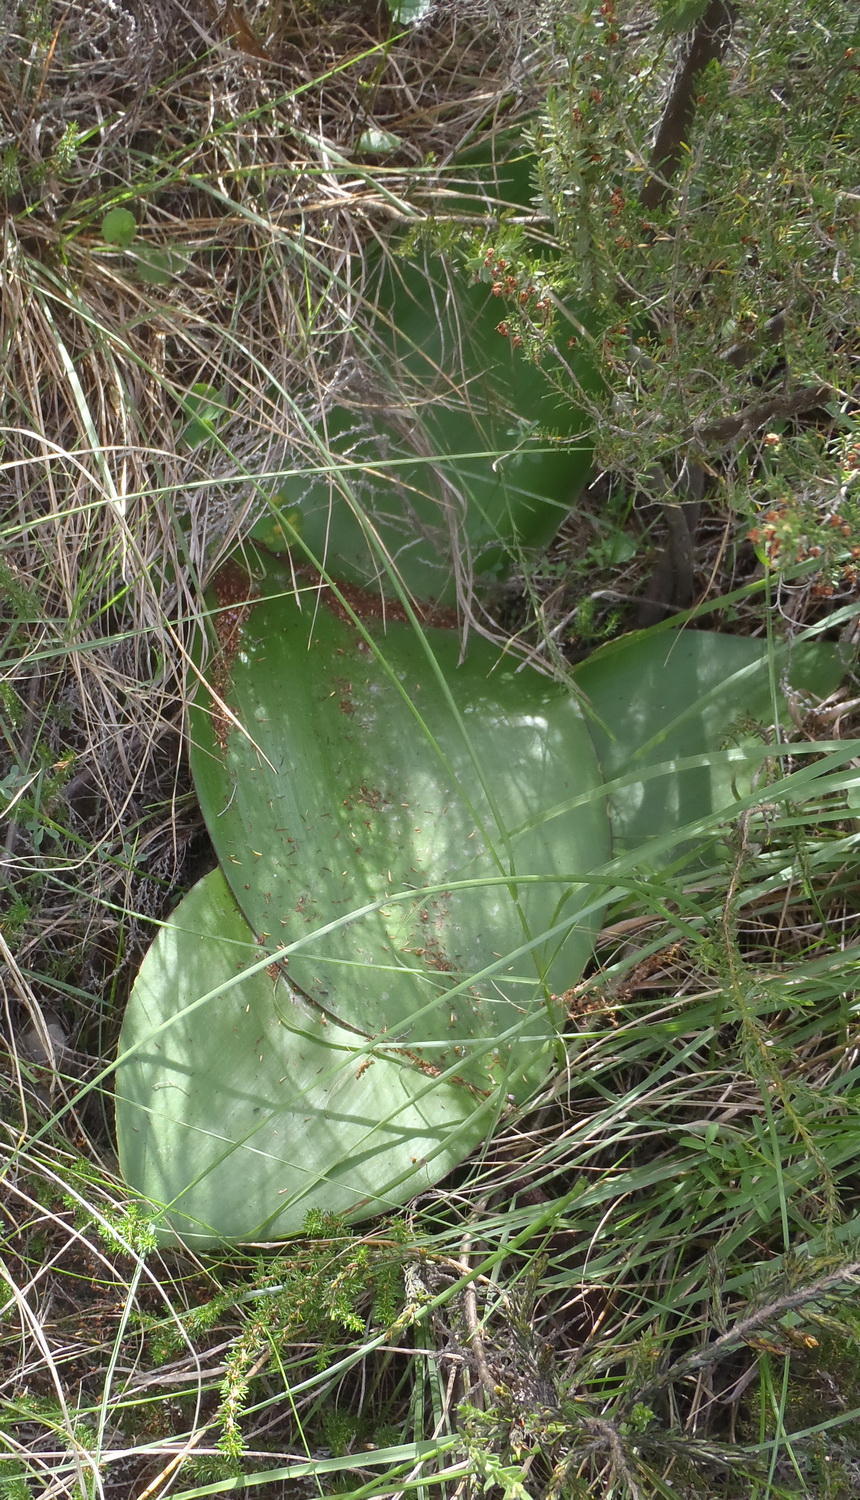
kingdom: Plantae
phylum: Tracheophyta
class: Liliopsida
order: Asparagales
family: Amaryllidaceae
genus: Haemanthus
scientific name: Haemanthus sanguineus
